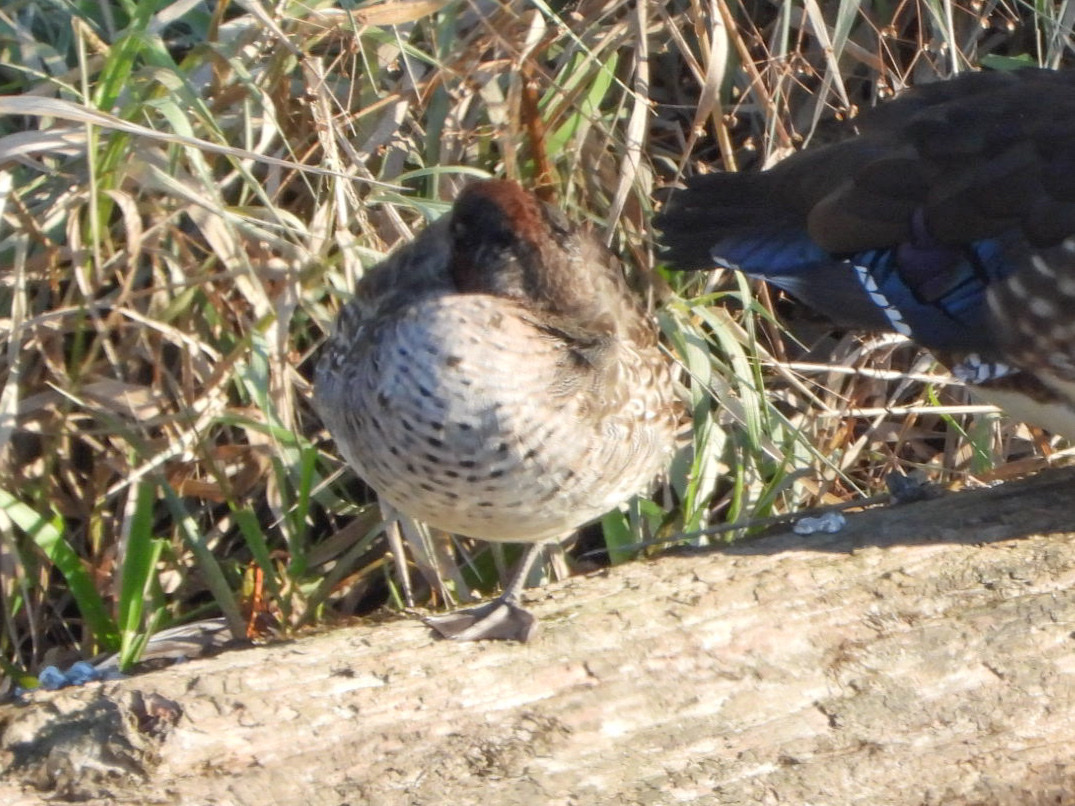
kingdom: Animalia
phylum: Chordata
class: Aves
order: Anseriformes
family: Anatidae
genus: Anas
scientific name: Anas crecca
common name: Eurasian teal
